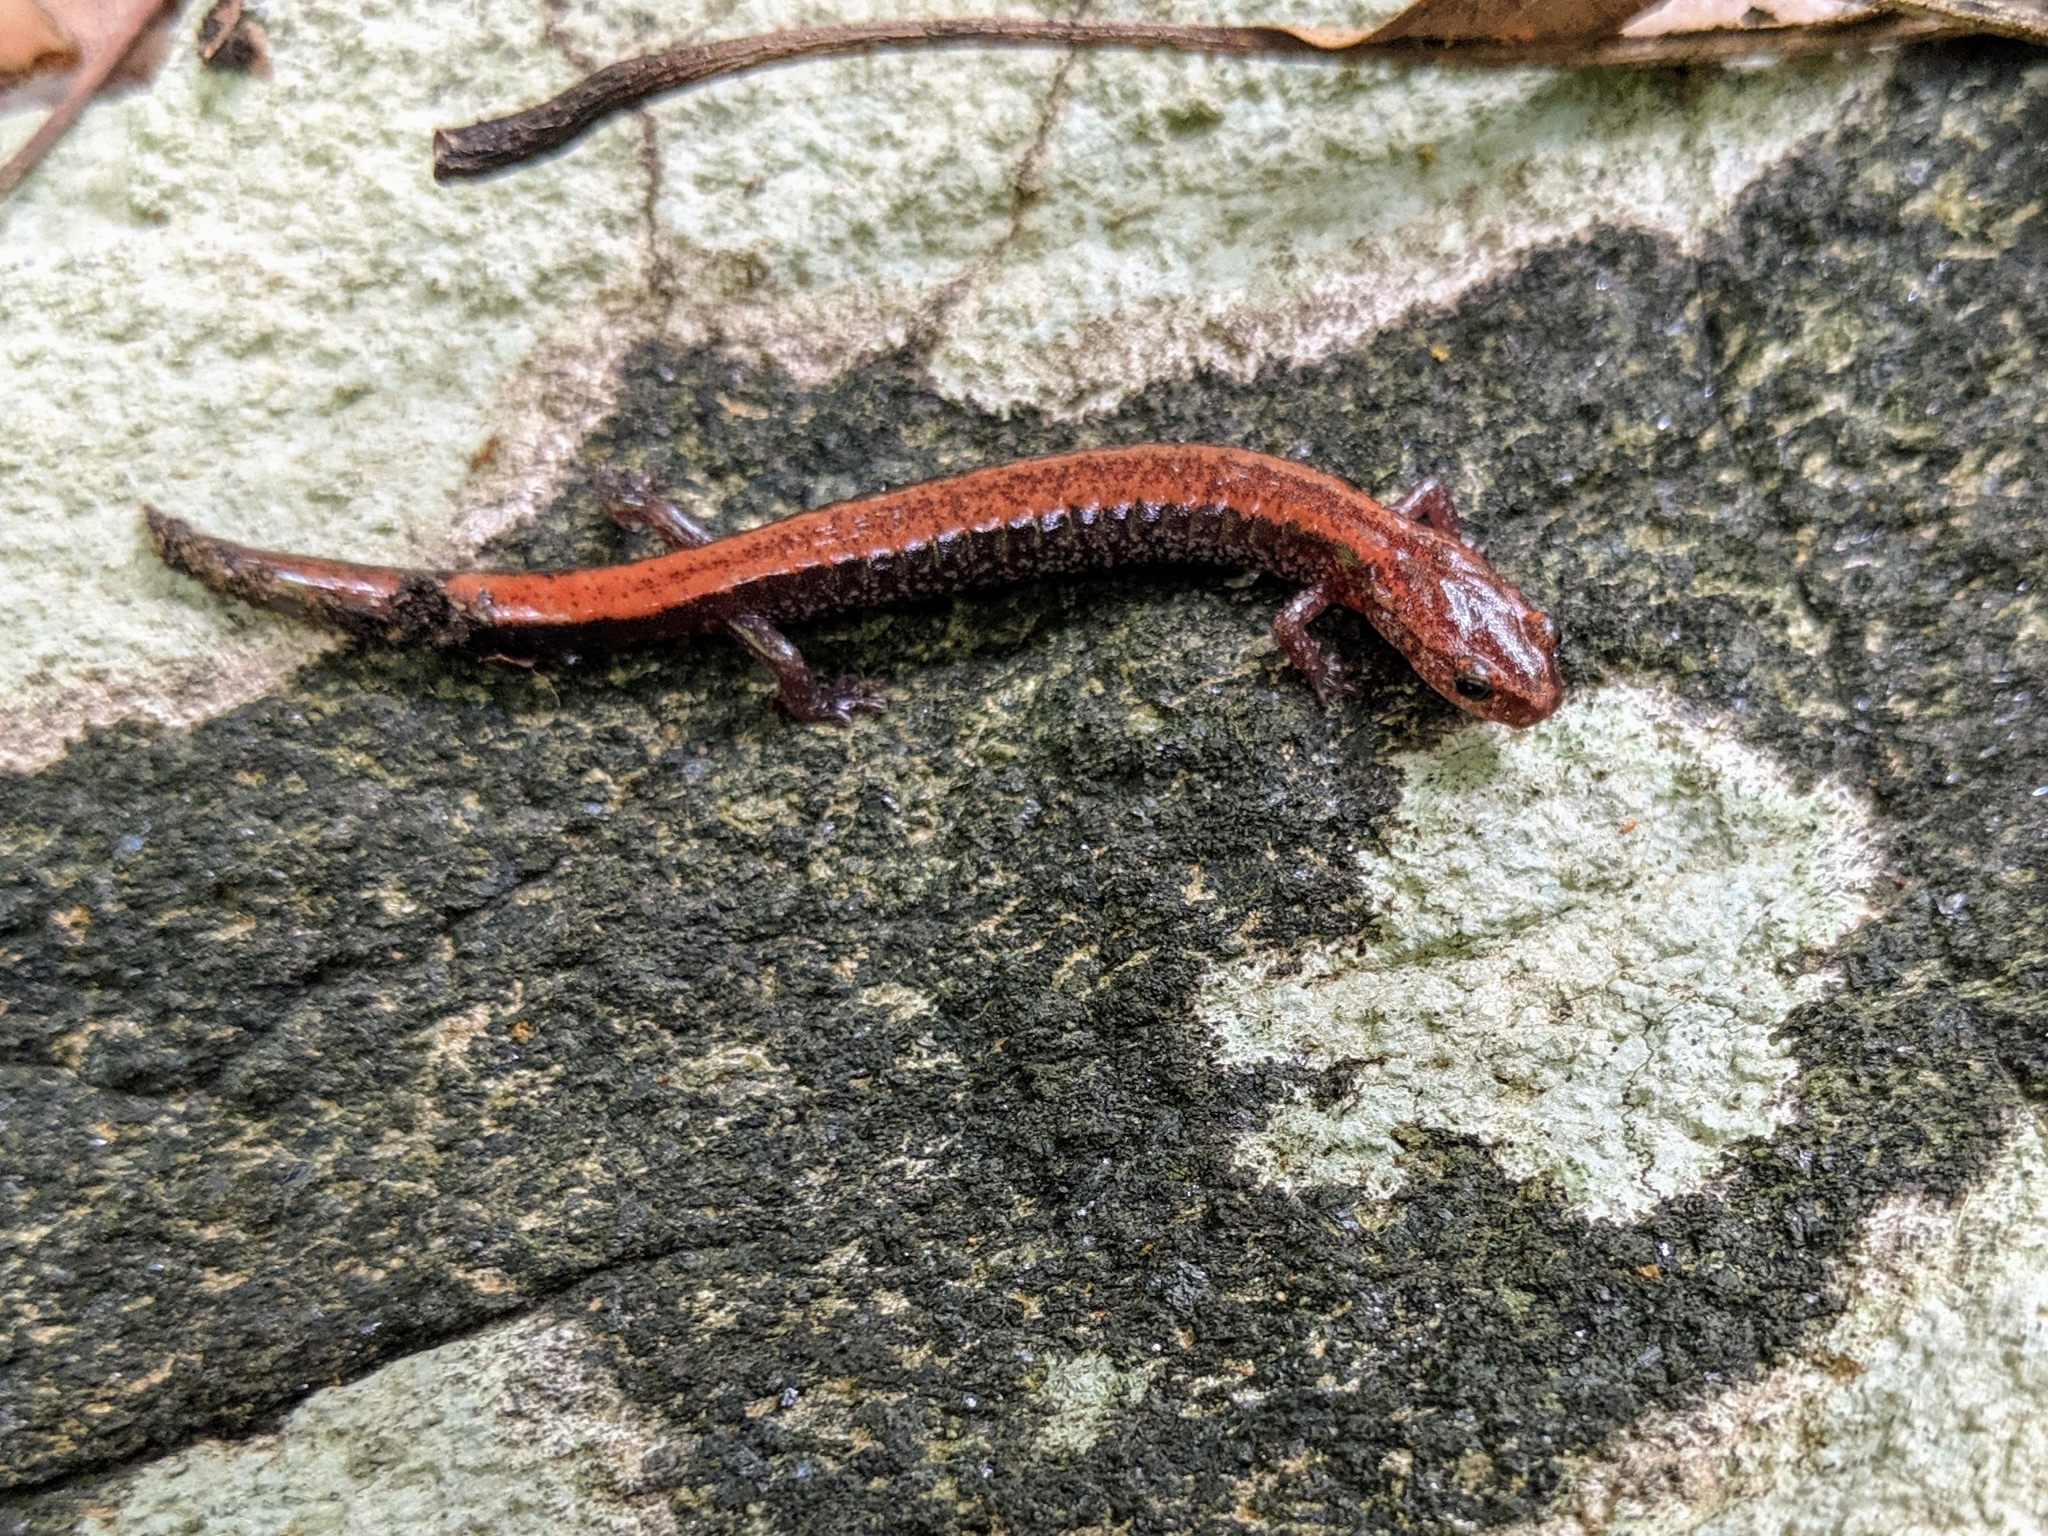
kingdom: Animalia
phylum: Chordata
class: Amphibia
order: Caudata
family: Plethodontidae
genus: Plethodon
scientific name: Plethodon cinereus
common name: Redback salamander
